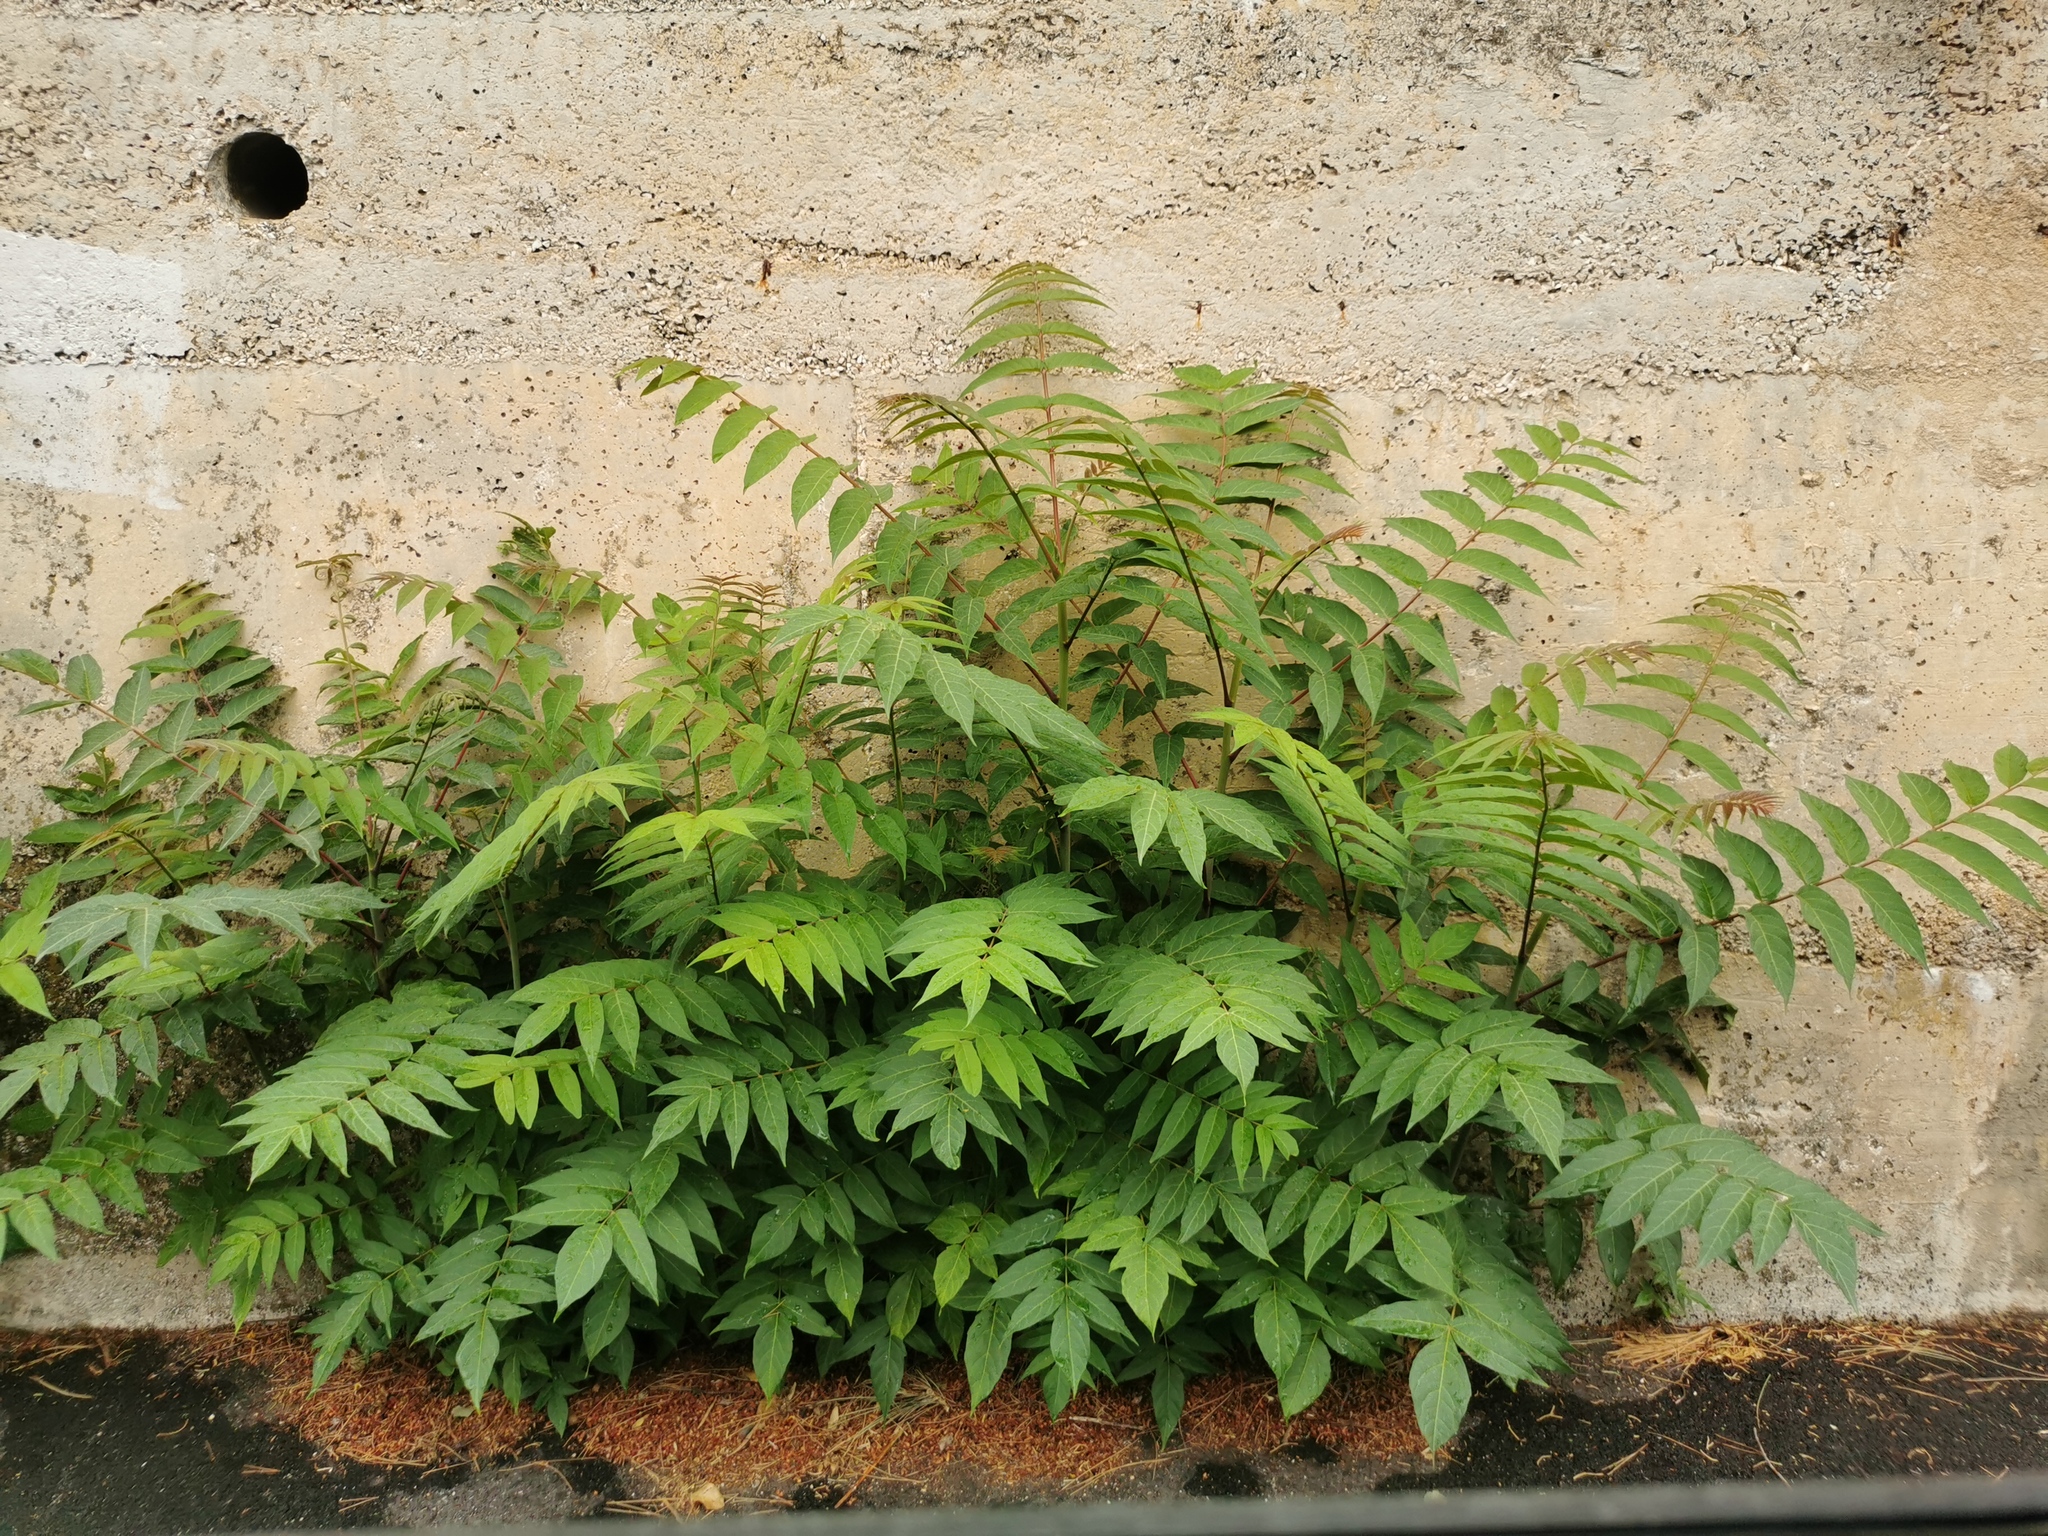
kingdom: Plantae
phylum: Tracheophyta
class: Magnoliopsida
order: Sapindales
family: Simaroubaceae
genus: Ailanthus
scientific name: Ailanthus altissima
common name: Tree-of-heaven
